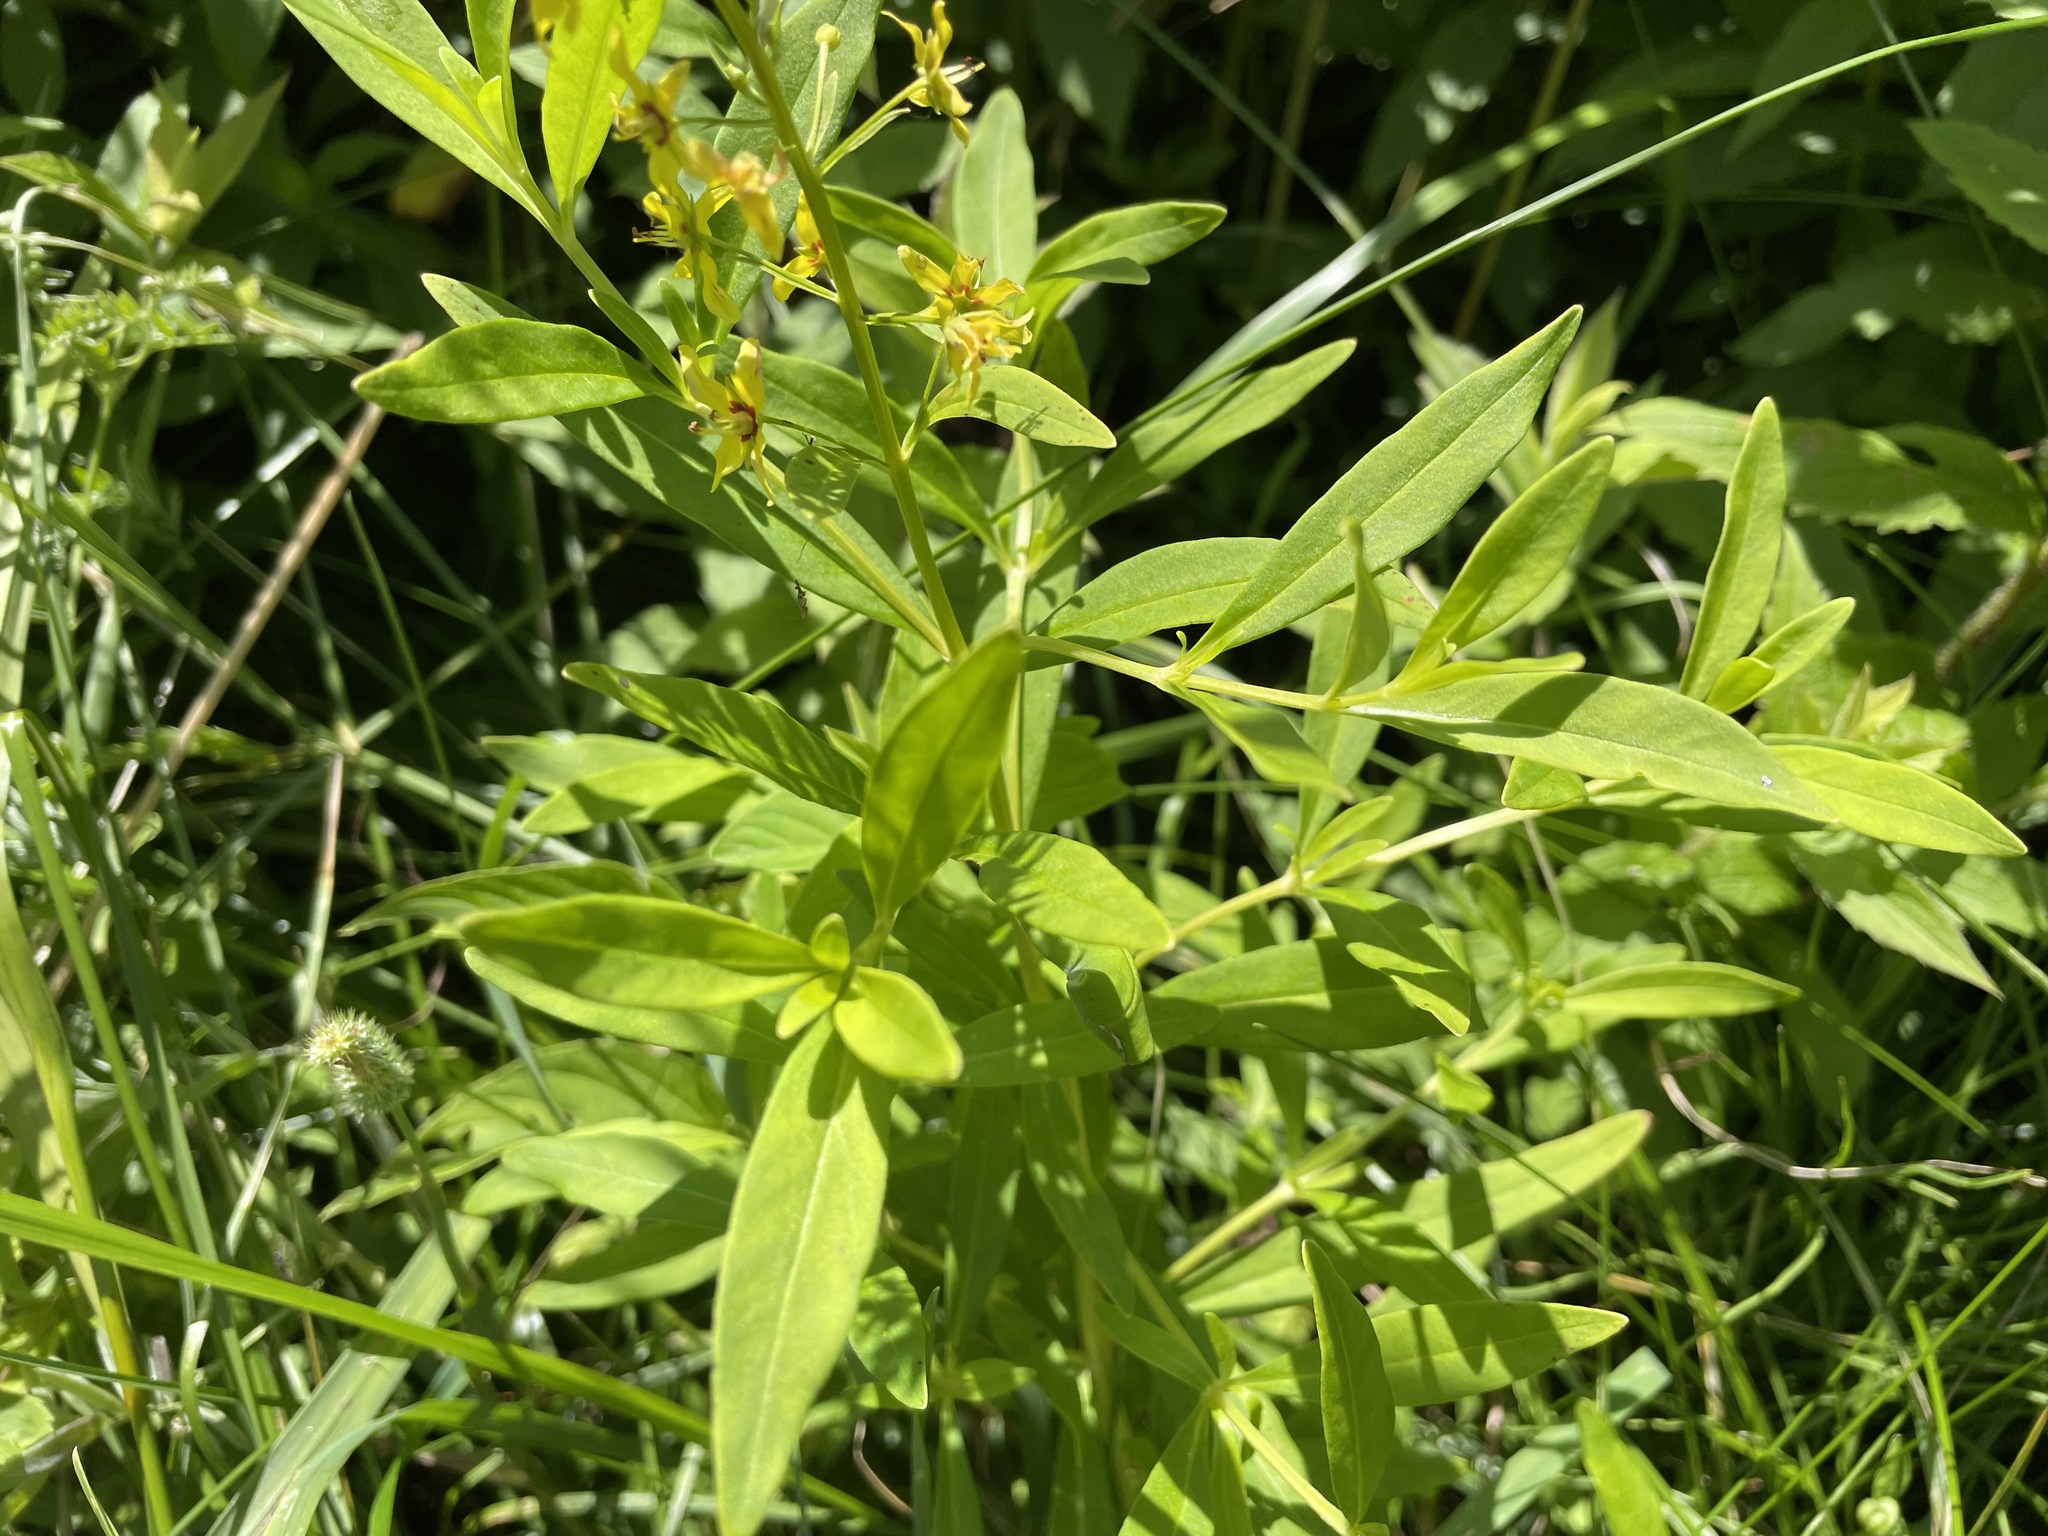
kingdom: Plantae
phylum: Tracheophyta
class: Magnoliopsida
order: Ericales
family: Primulaceae
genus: Lysimachia
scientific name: Lysimachia terrestris
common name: Lake loosestrife
